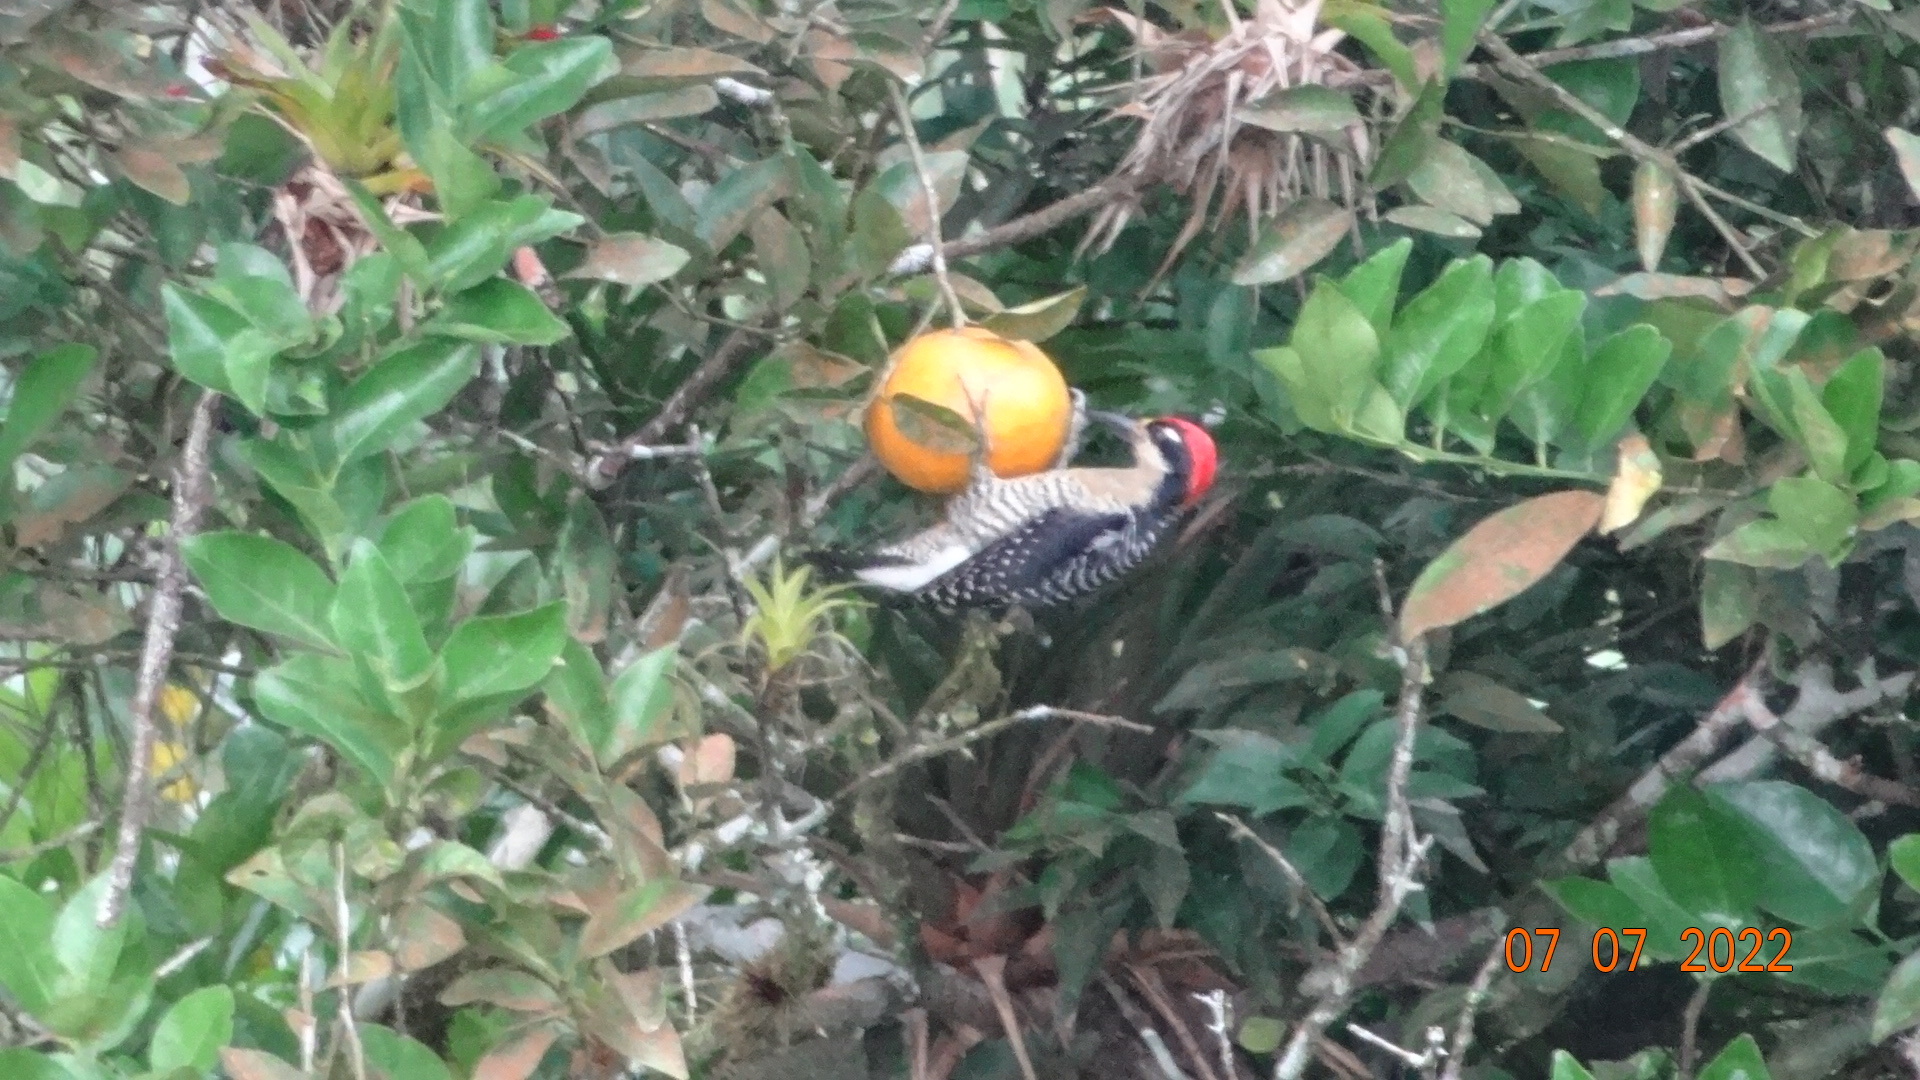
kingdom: Animalia
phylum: Chordata
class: Aves
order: Piciformes
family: Picidae
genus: Melanerpes
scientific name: Melanerpes pucherani
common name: Black-cheeked woodpecker
